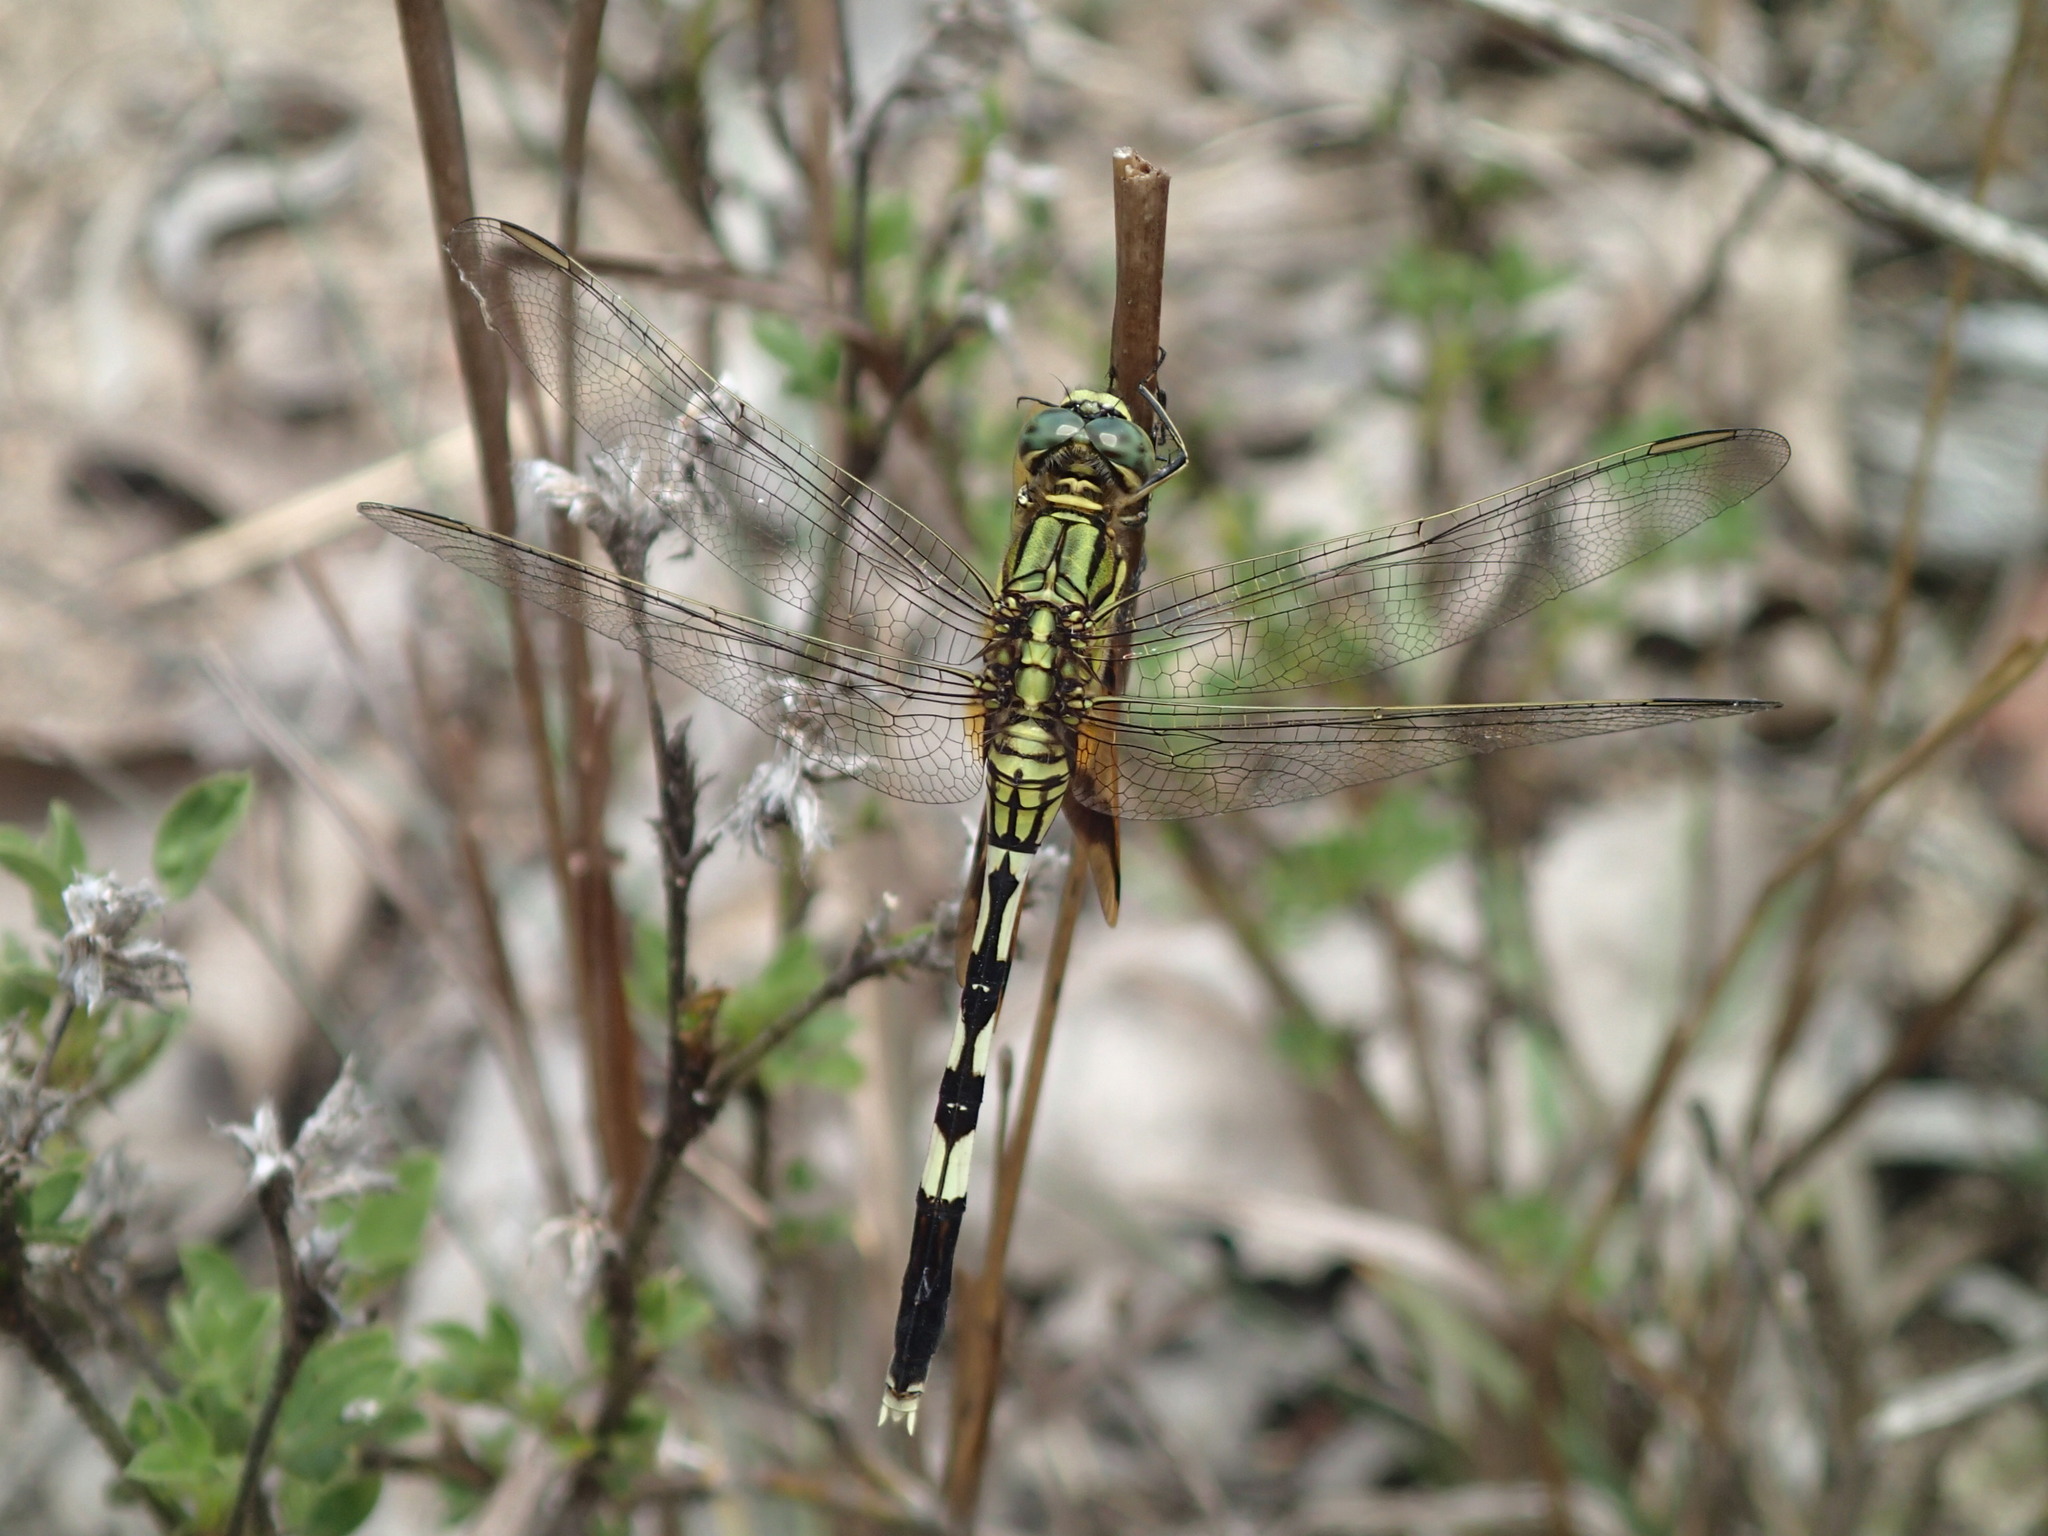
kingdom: Animalia
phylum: Arthropoda
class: Insecta
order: Odonata
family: Libellulidae
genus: Orthetrum
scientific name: Orthetrum sabina
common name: Slender skimmer
